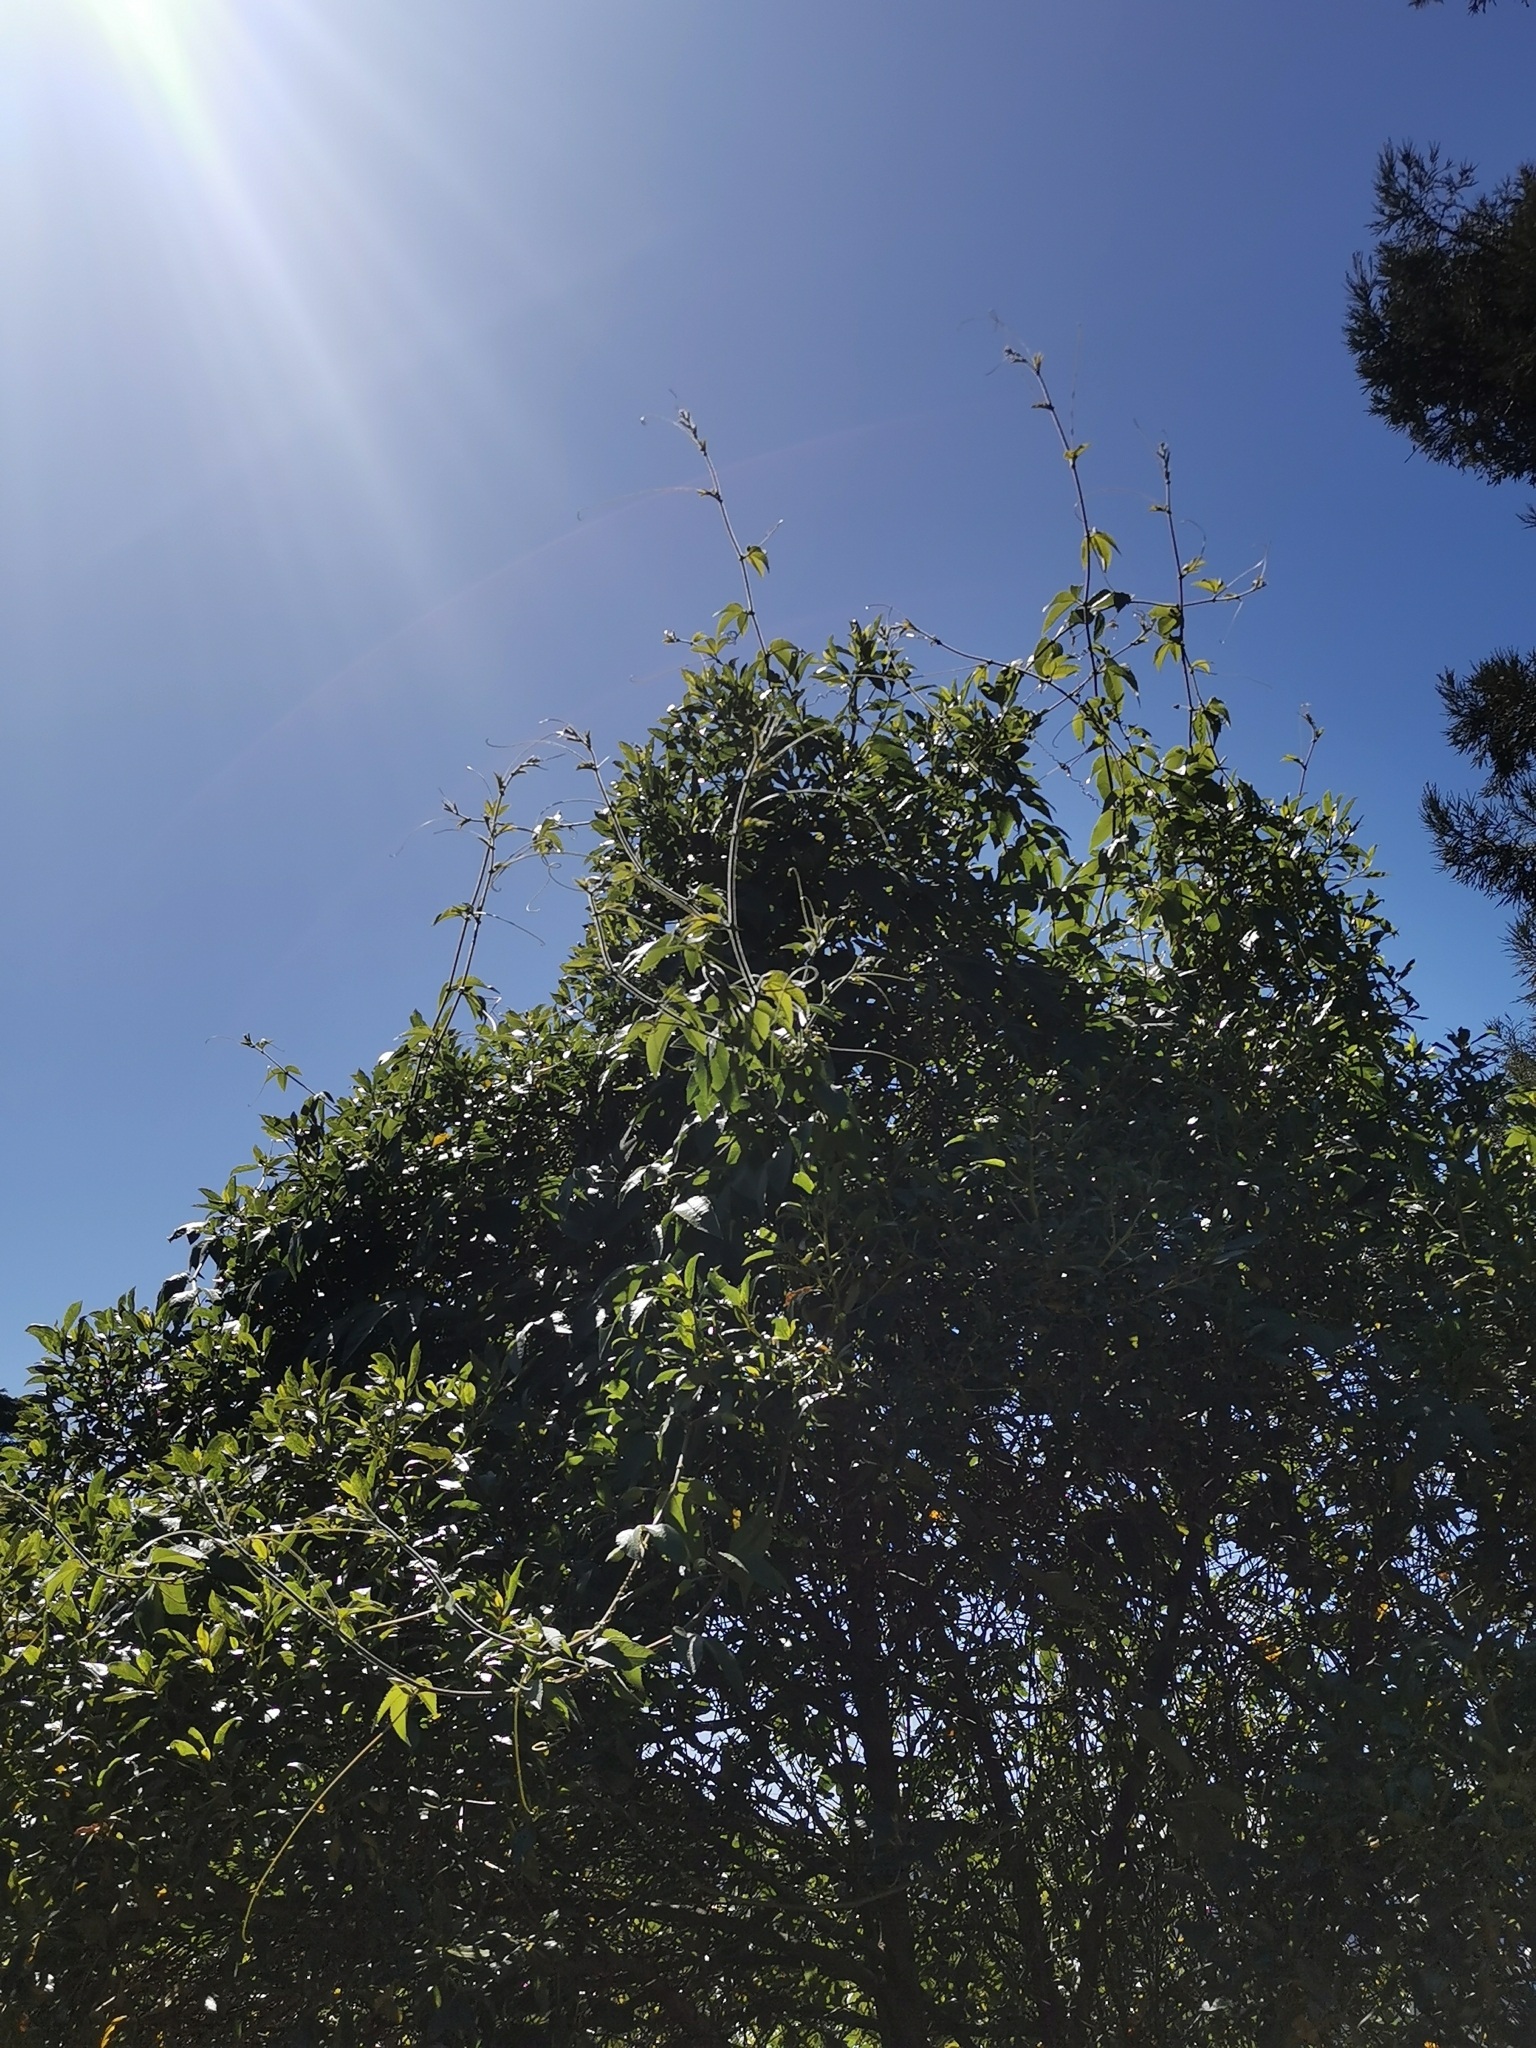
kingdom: Plantae
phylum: Tracheophyta
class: Magnoliopsida
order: Malpighiales
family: Passifloraceae
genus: Passiflora
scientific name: Passiflora tripartita
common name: Banana poka
